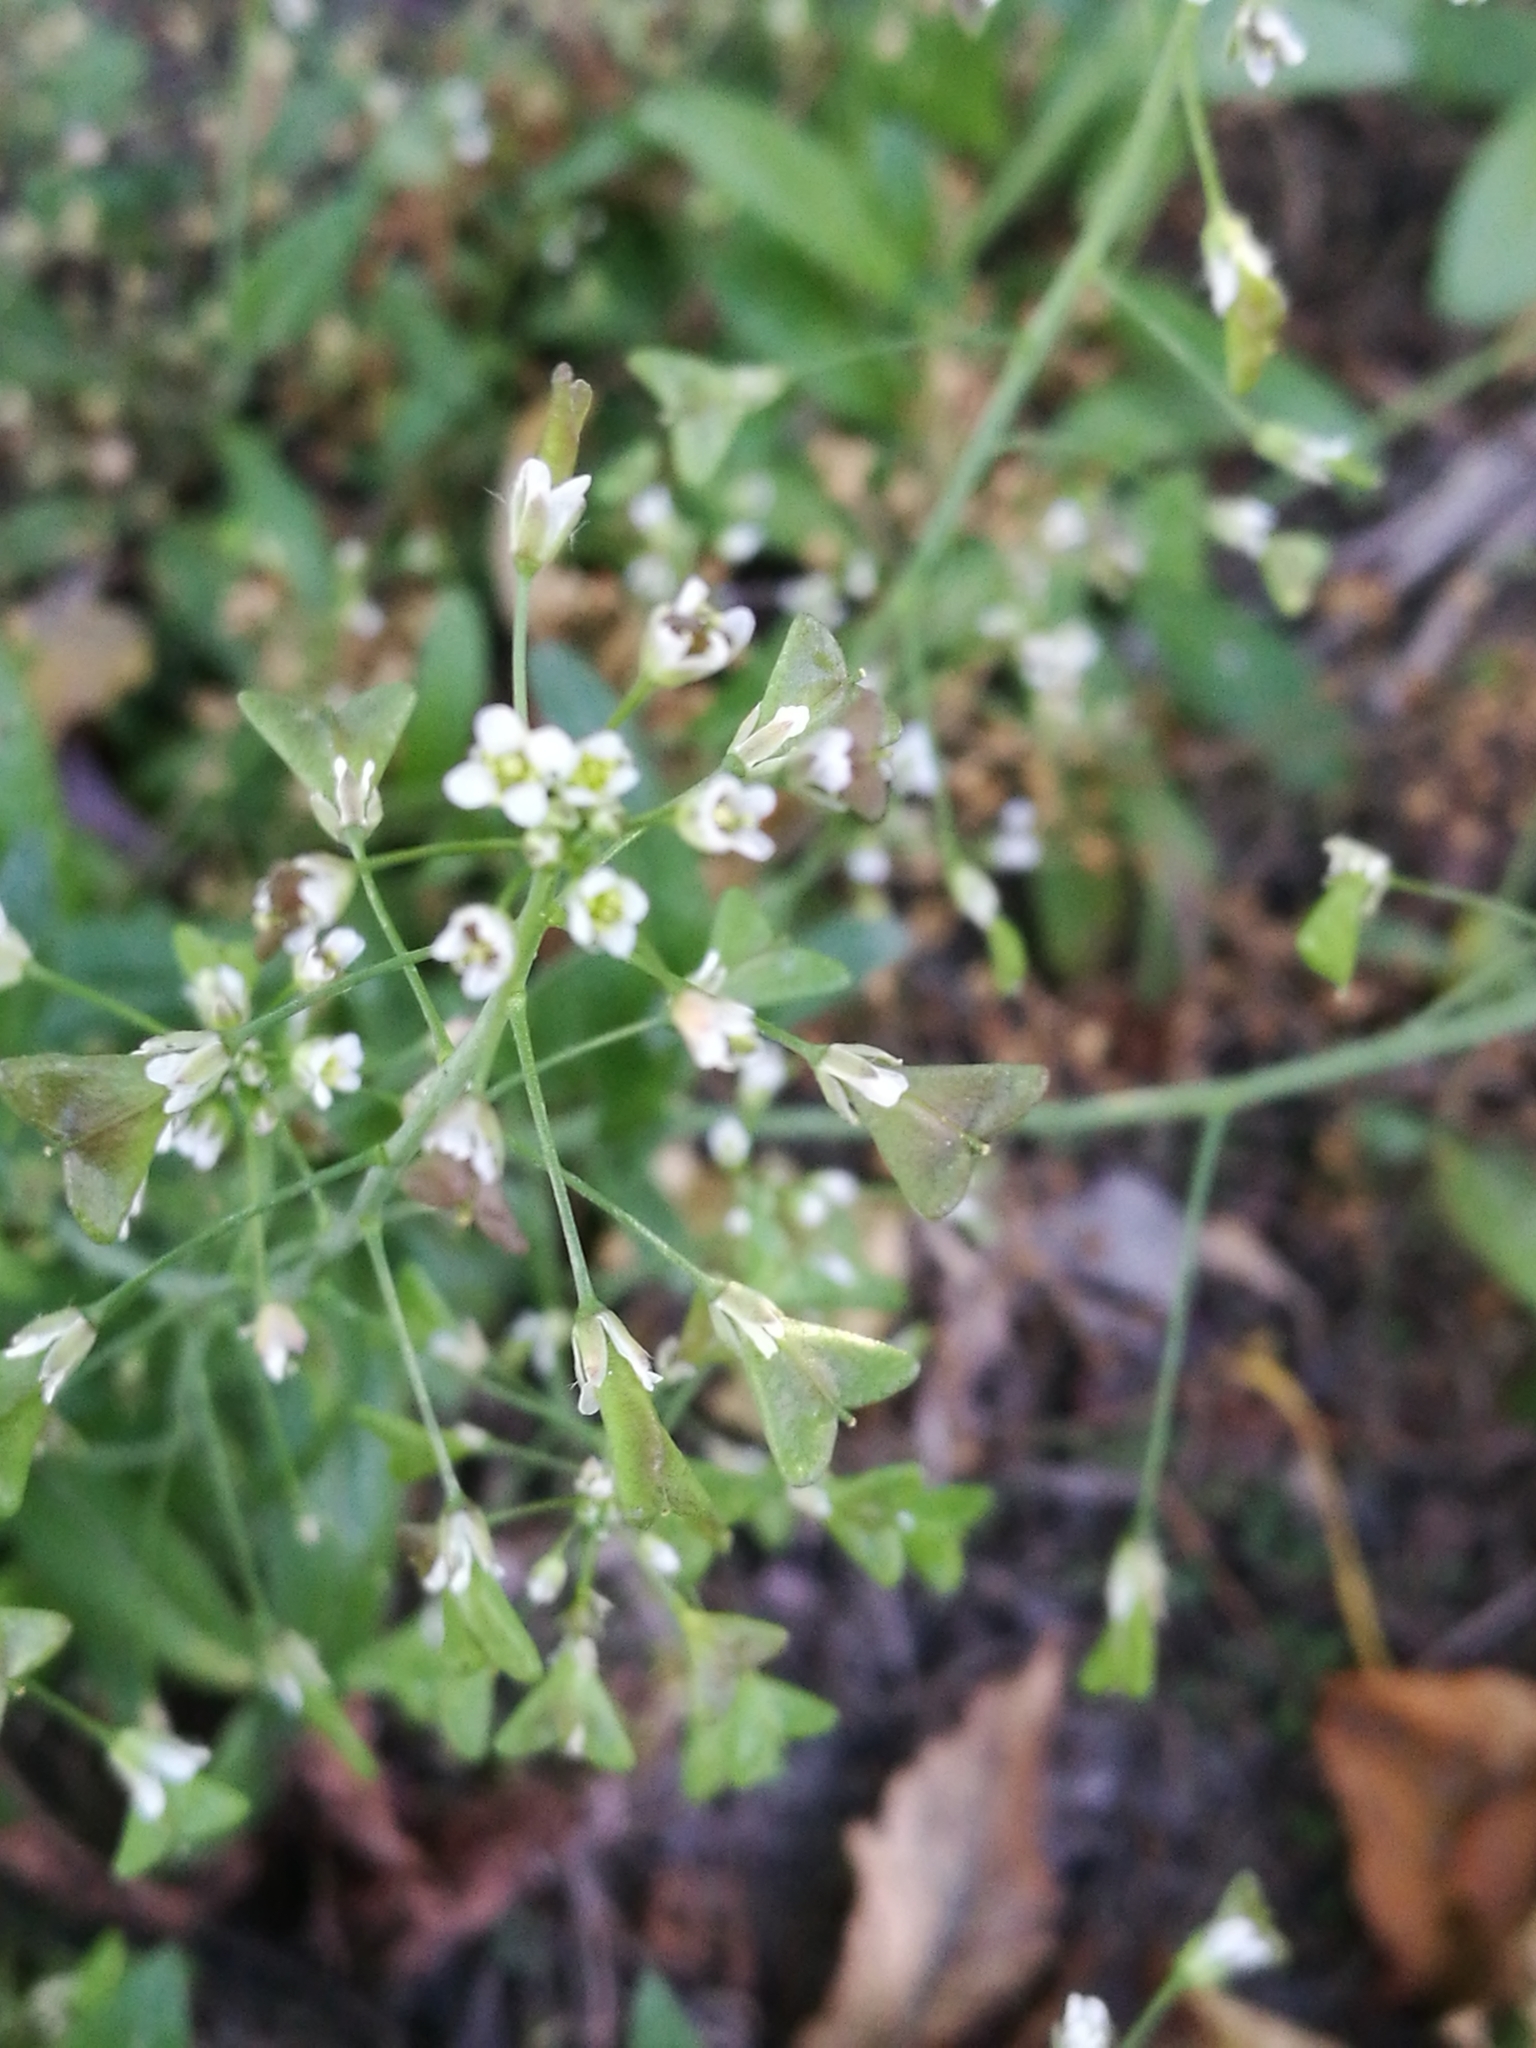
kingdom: Plantae
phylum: Tracheophyta
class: Magnoliopsida
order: Brassicales
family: Brassicaceae
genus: Capsella
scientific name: Capsella bursa-pastoris
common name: Shepherd's purse
